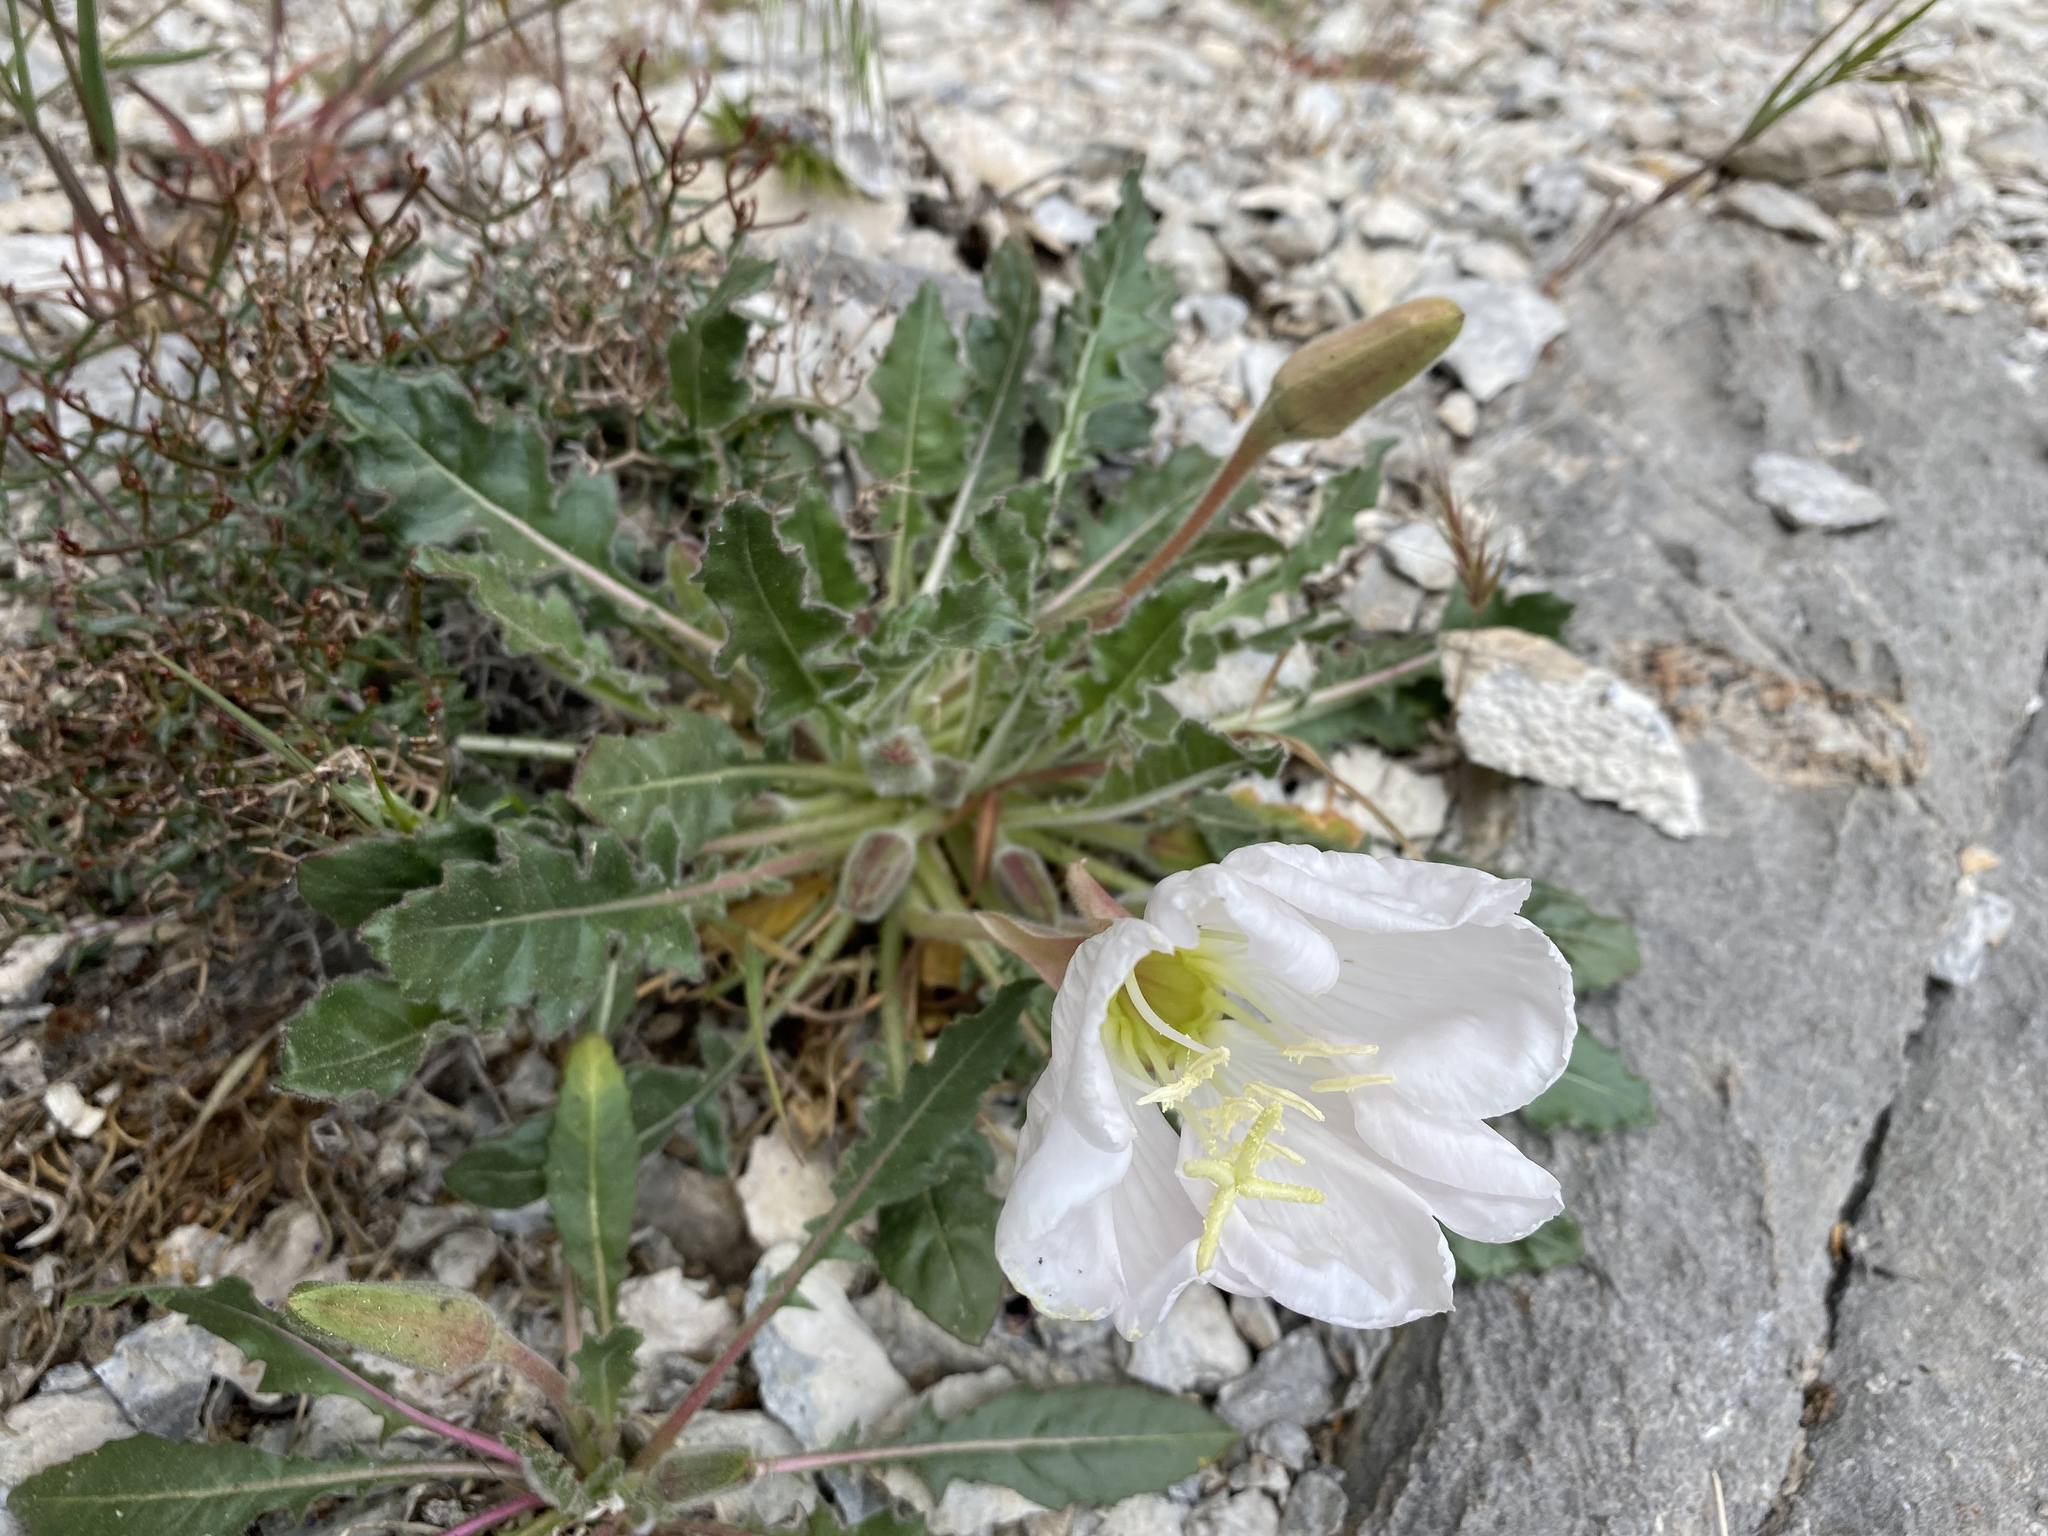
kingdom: Plantae
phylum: Tracheophyta
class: Magnoliopsida
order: Myrtales
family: Onagraceae
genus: Oenothera
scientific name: Oenothera cespitosa
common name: Tufted evening-primrose
